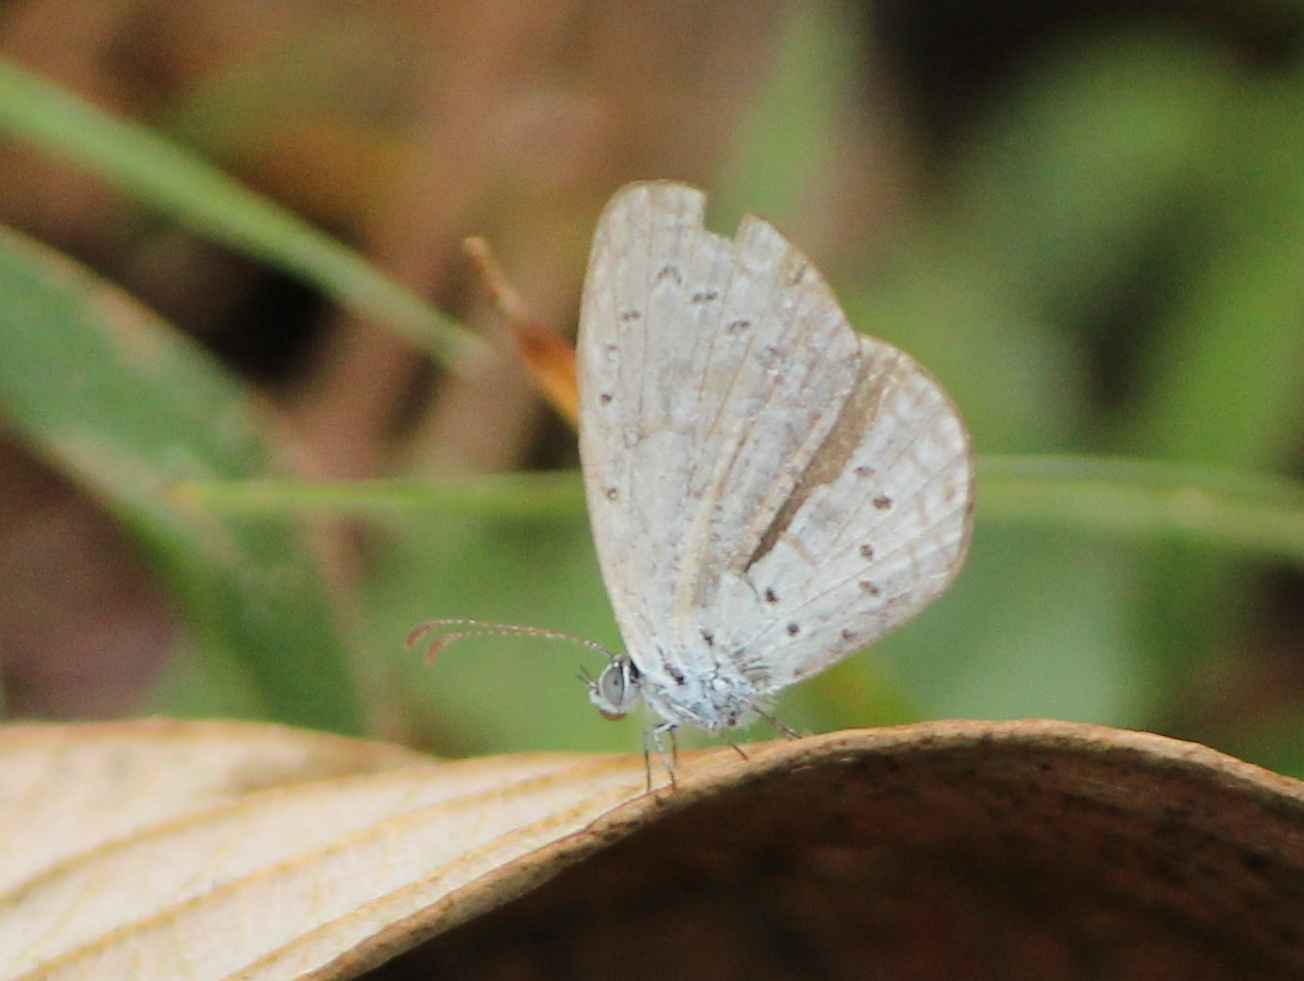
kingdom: Animalia
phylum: Arthropoda
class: Insecta
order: Lepidoptera
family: Lycaenidae
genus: Zizula
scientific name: Zizula hylax
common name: Gaika blue
